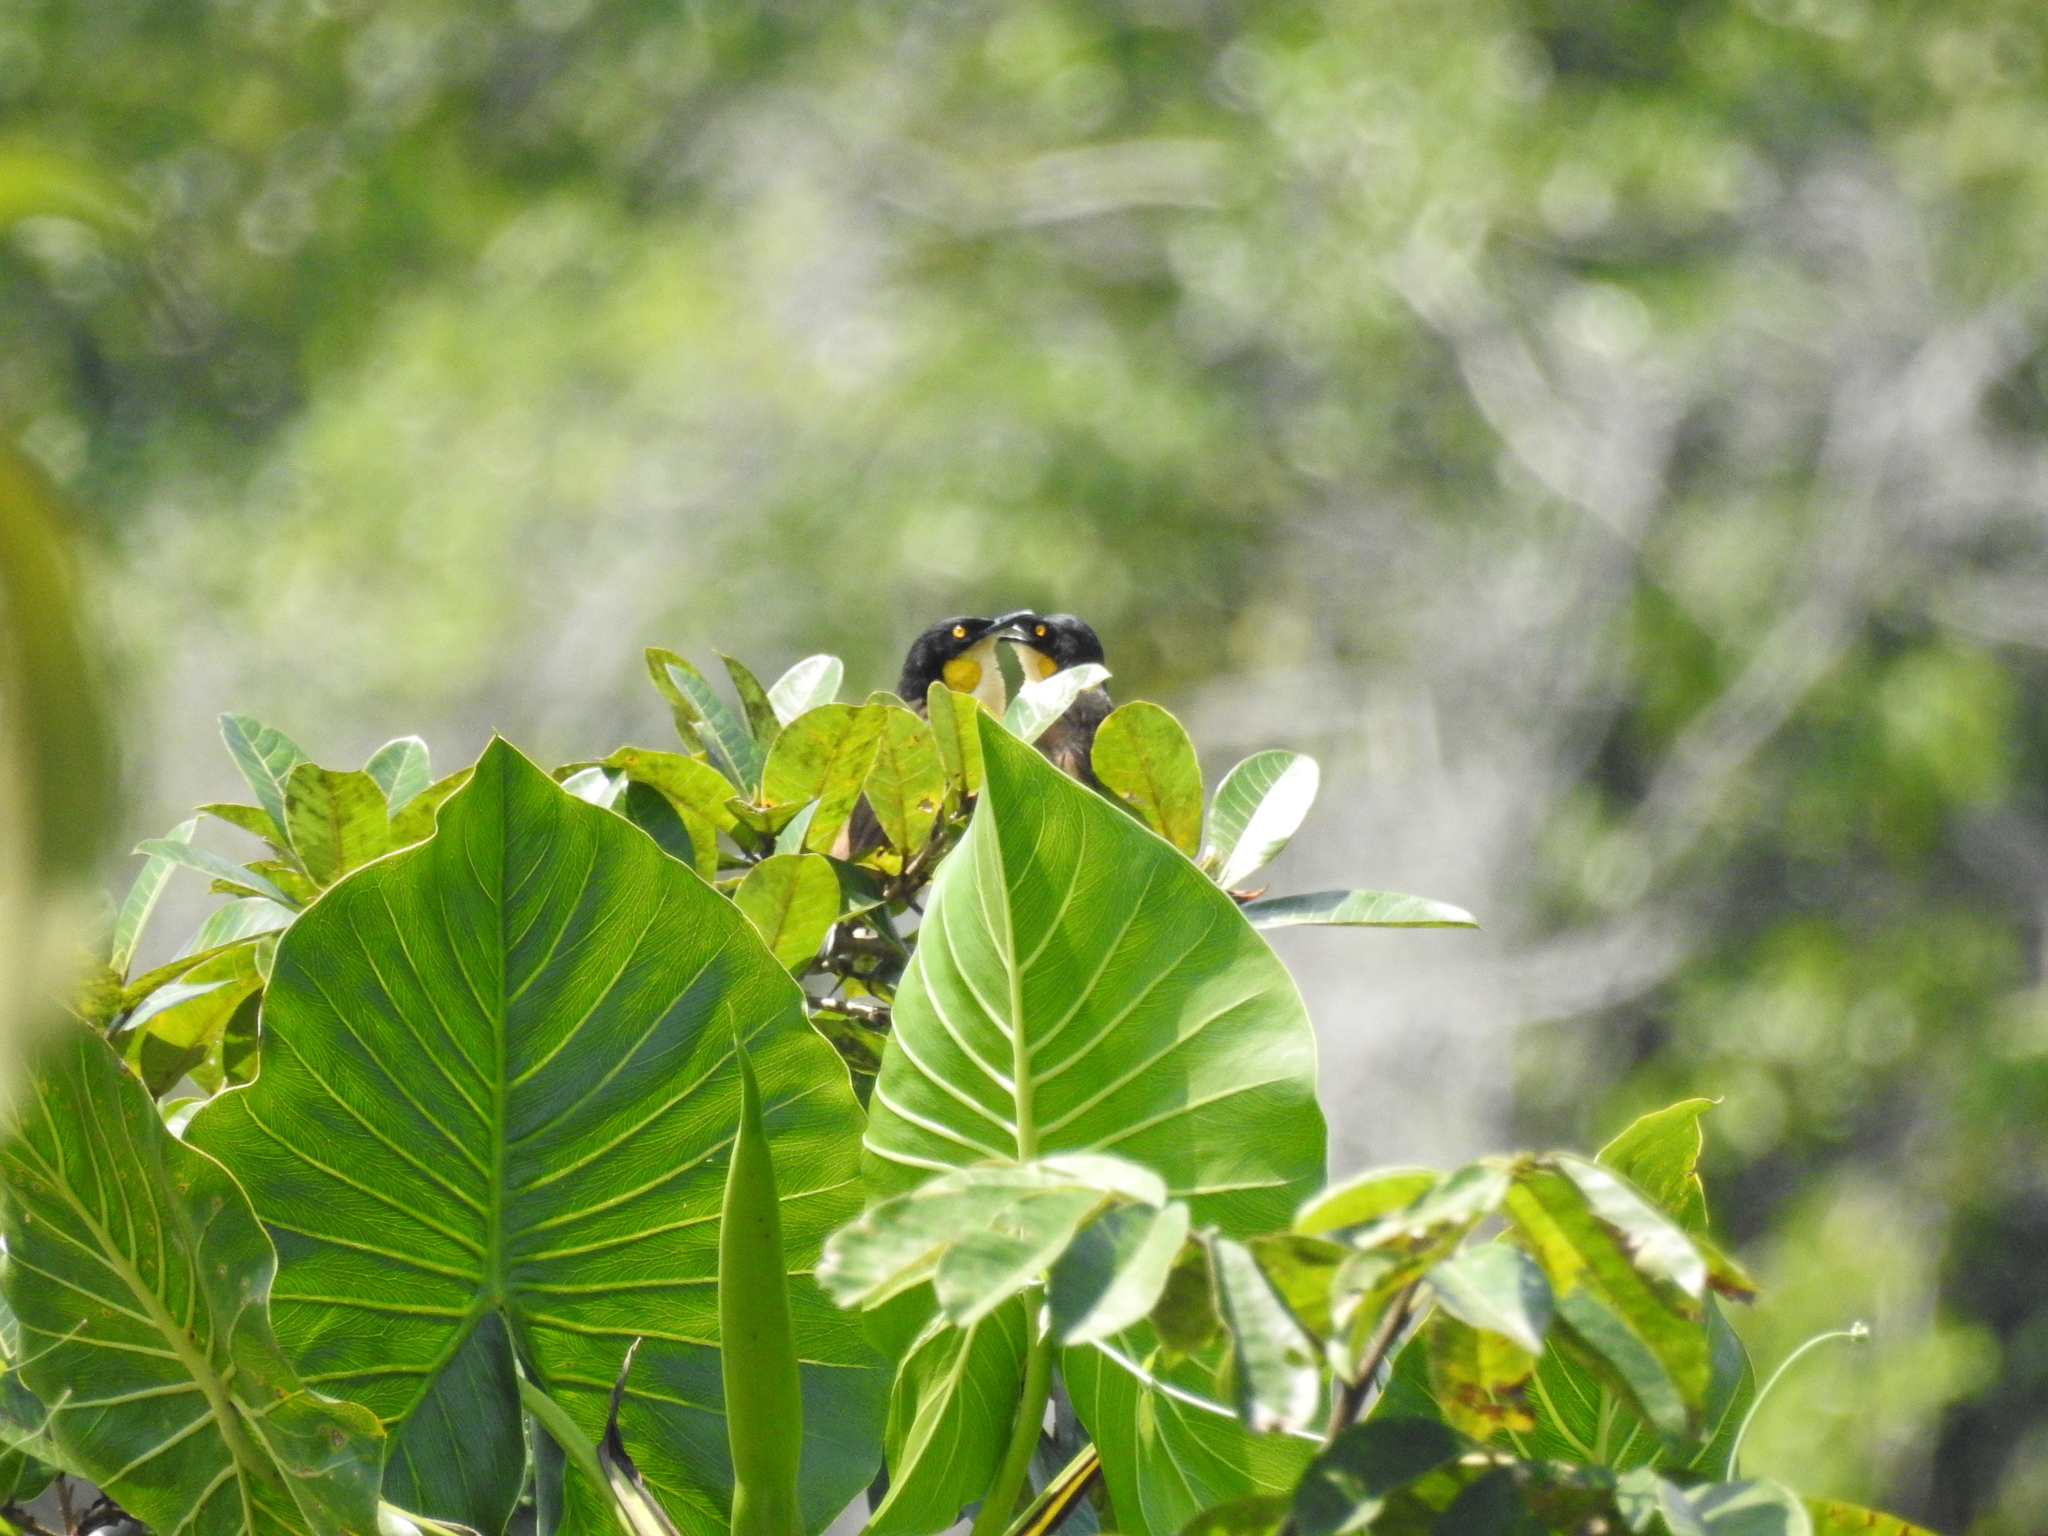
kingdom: Animalia
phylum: Chordata
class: Aves
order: Passeriformes
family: Donacobiidae
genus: Donacobius
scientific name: Donacobius atricapilla
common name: Black-capped donacobius
